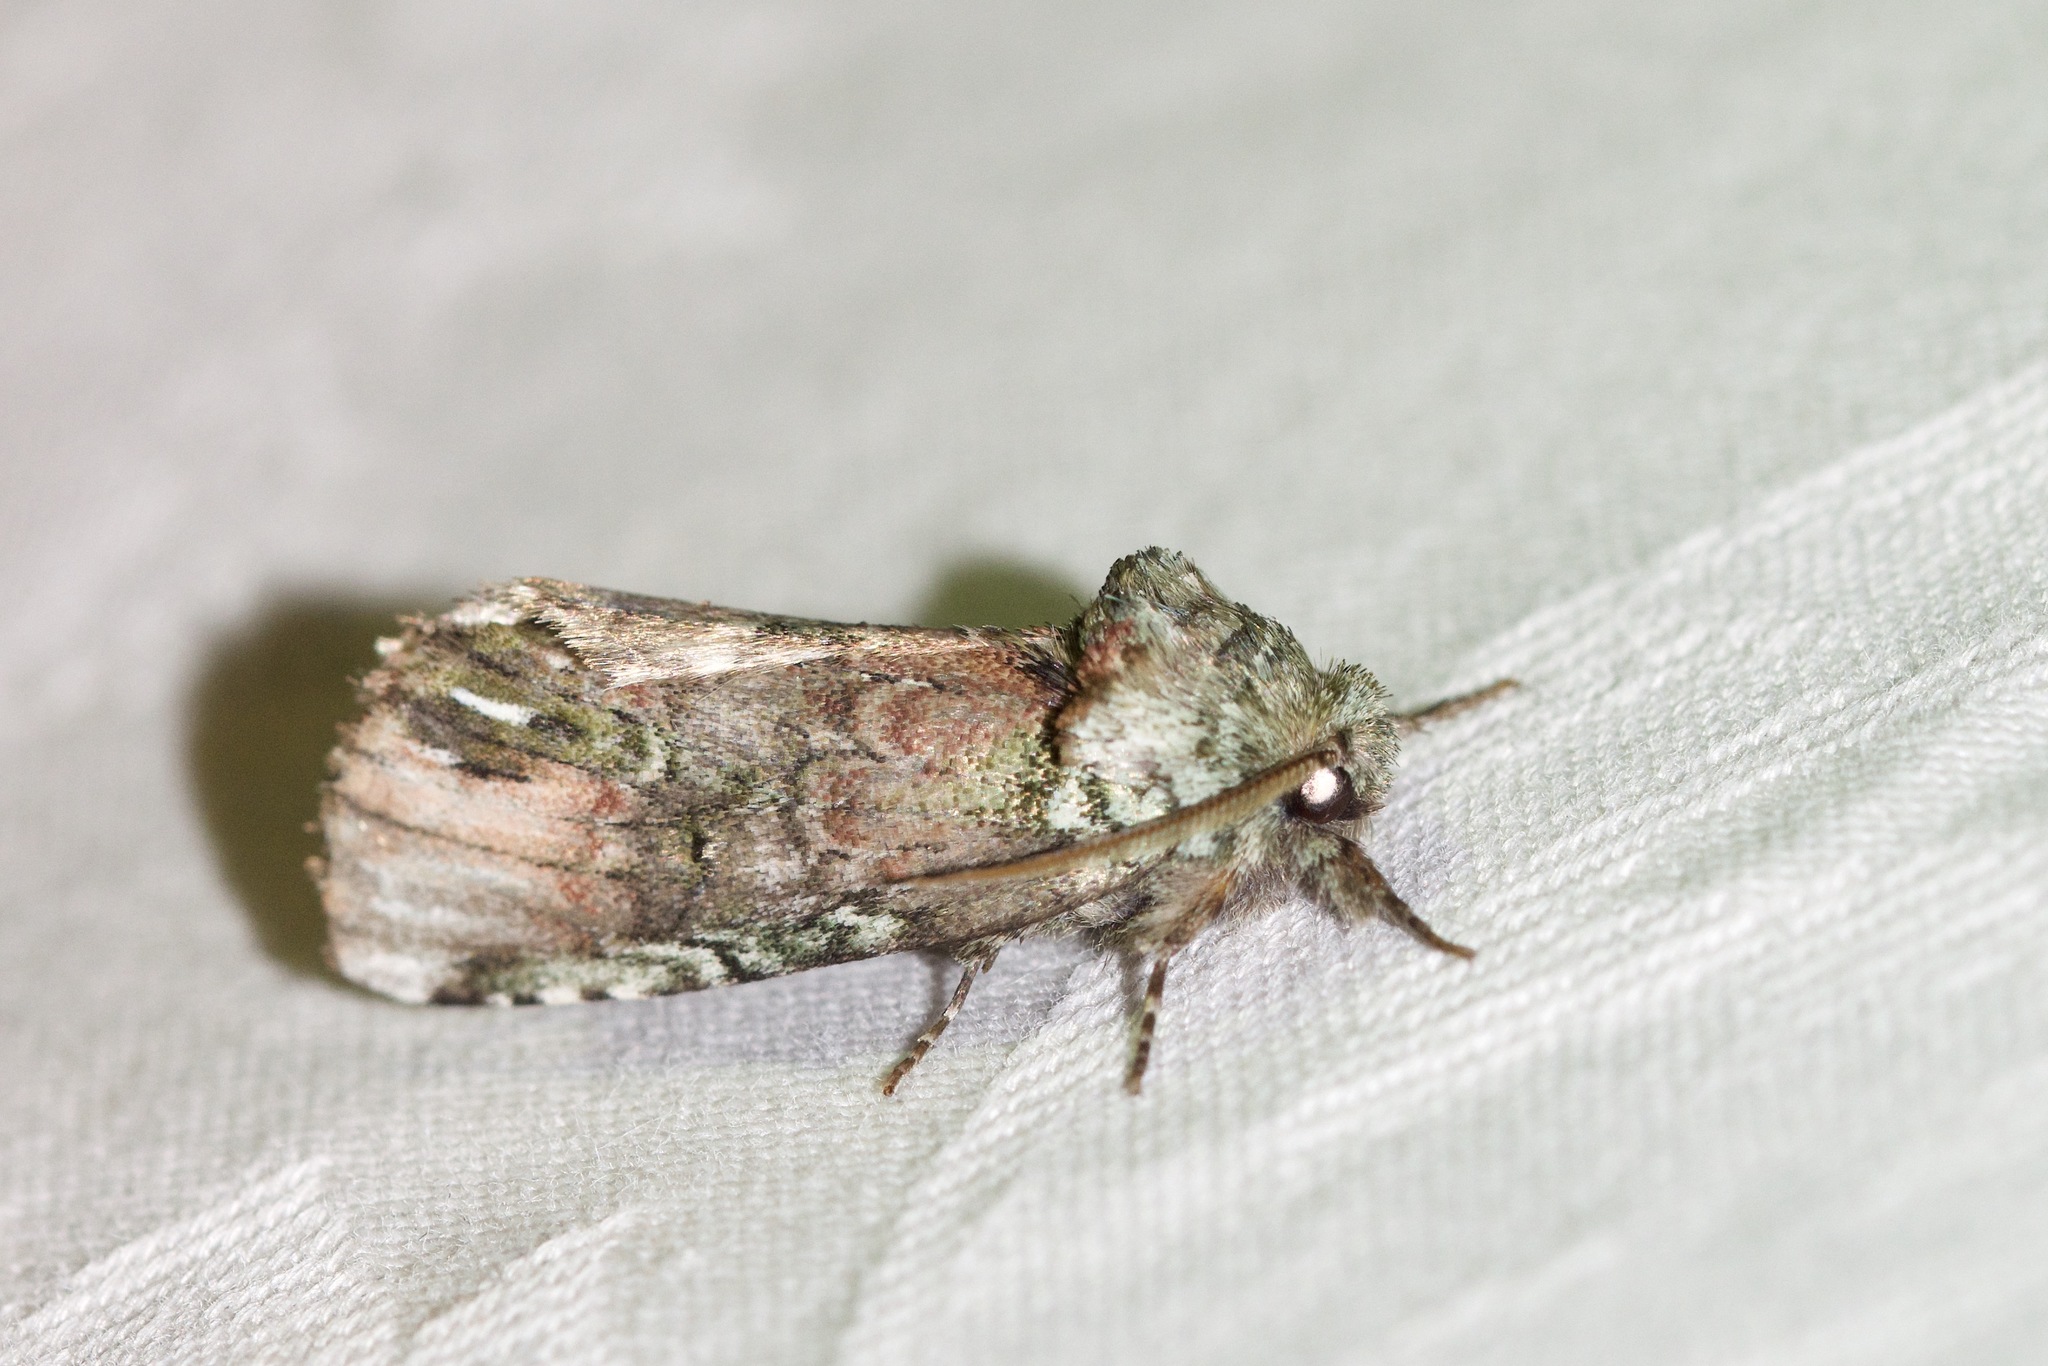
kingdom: Animalia
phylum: Arthropoda
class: Insecta
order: Lepidoptera
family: Notodontidae
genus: Schizura
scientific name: Schizura
